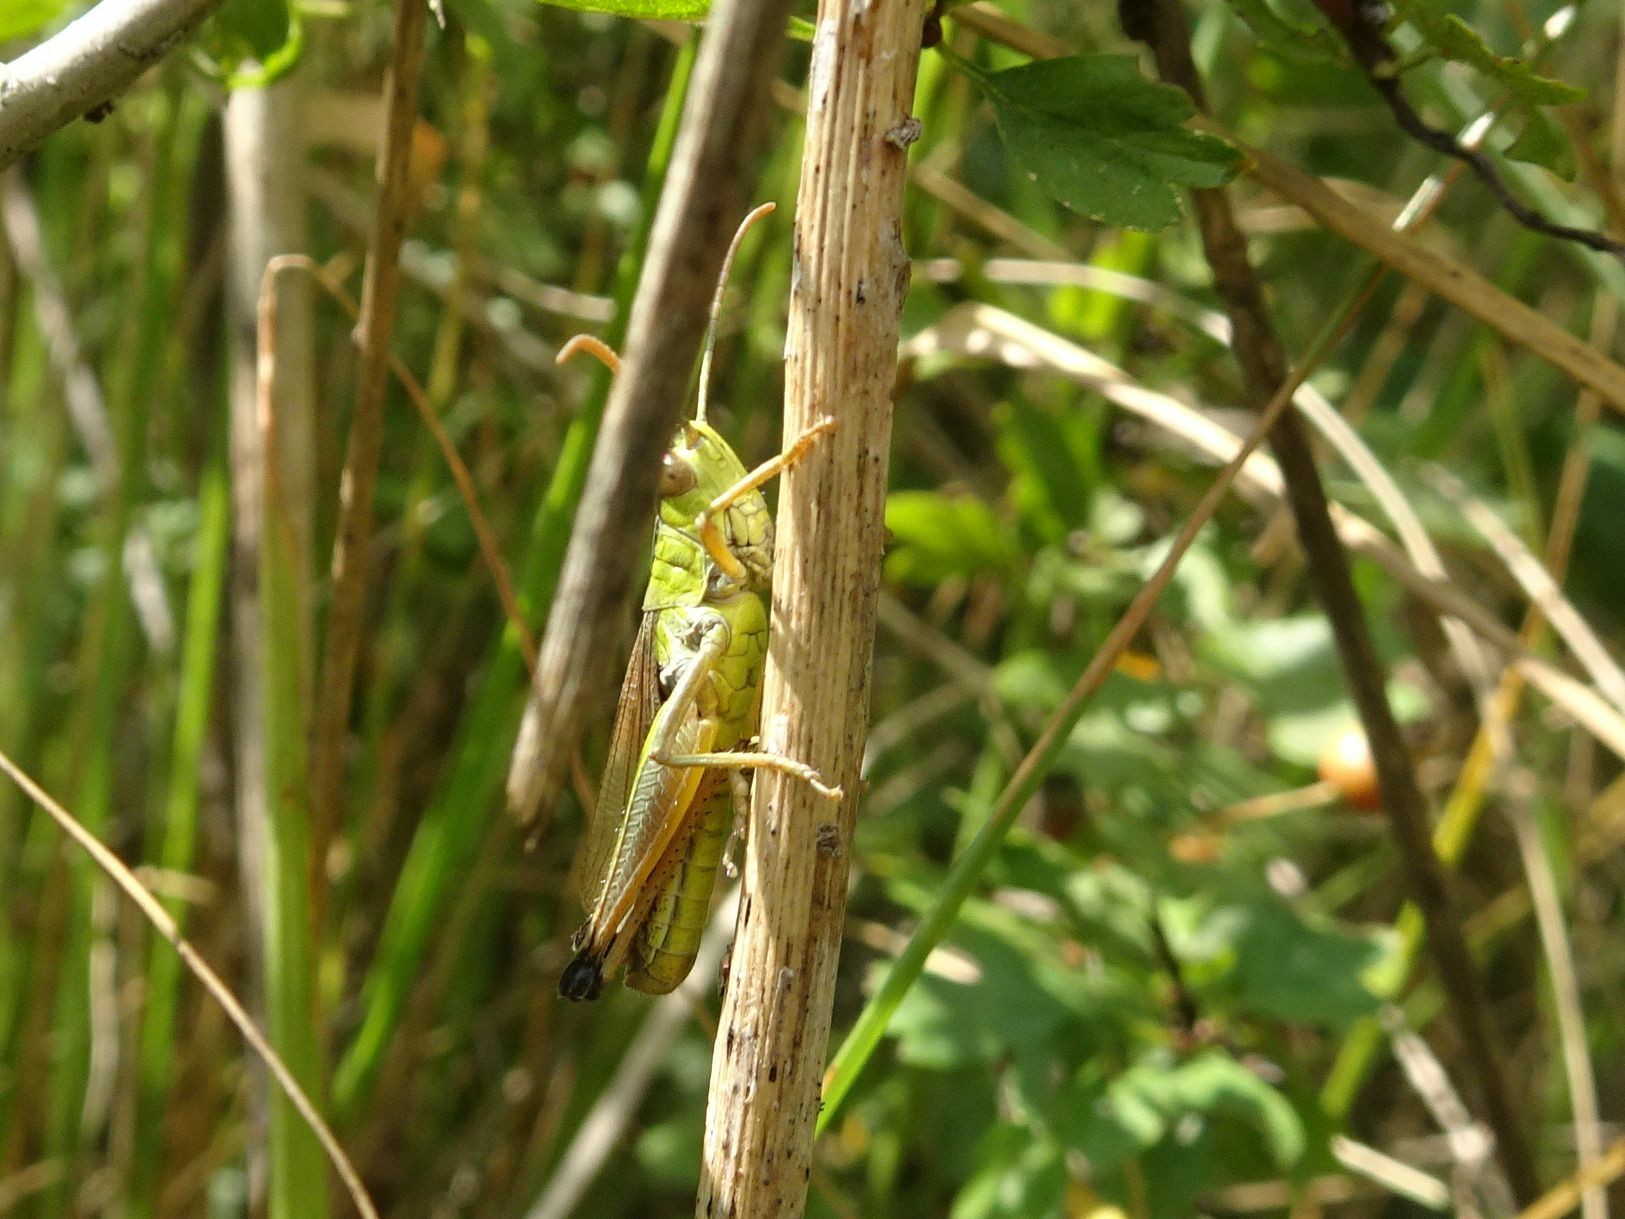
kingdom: Animalia
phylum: Arthropoda
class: Insecta
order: Orthoptera
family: Acrididae
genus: Pseudochorthippus
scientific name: Pseudochorthippus parallelus
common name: Meadow grasshopper
